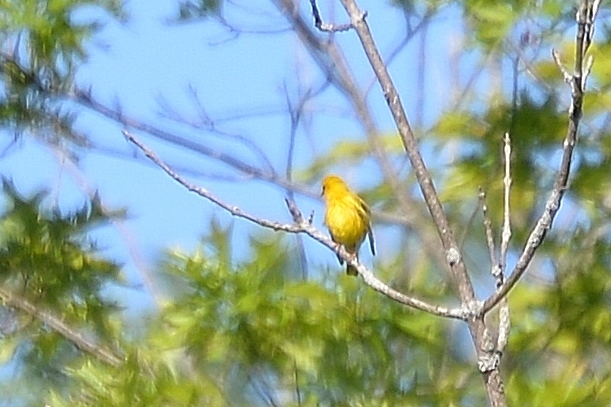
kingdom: Animalia
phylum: Chordata
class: Aves
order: Passeriformes
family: Parulidae
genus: Setophaga
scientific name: Setophaga petechia
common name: Yellow warbler
